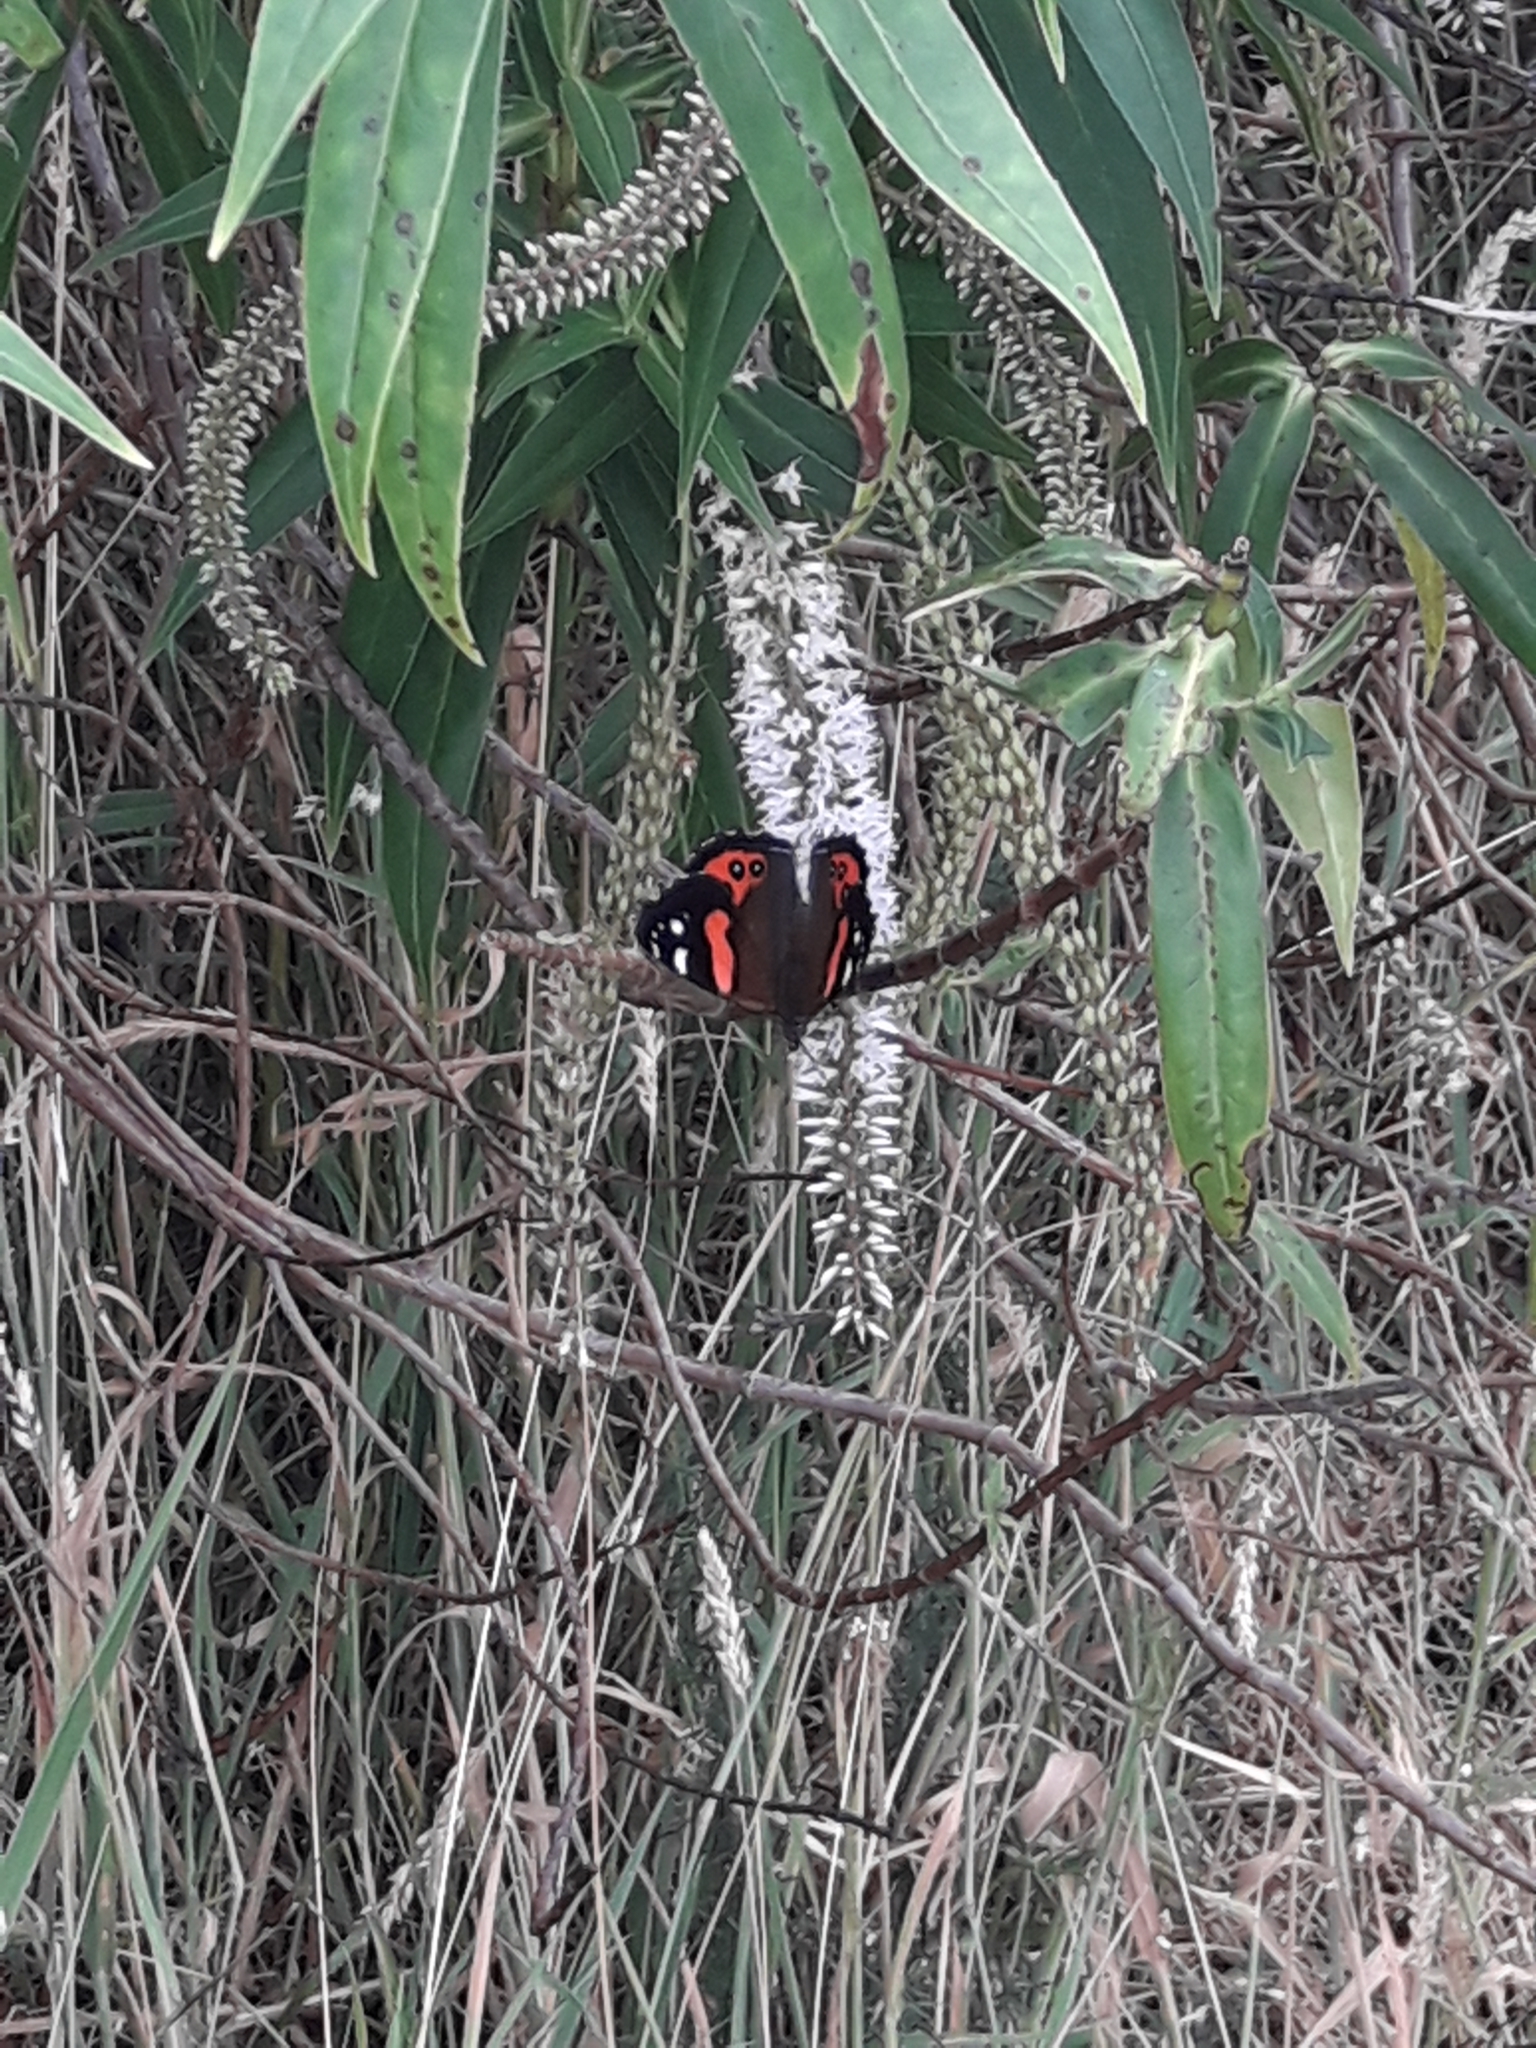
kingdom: Animalia
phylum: Arthropoda
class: Insecta
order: Lepidoptera
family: Nymphalidae
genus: Vanessa
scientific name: Vanessa gonerilla
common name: New zealand red admiral
